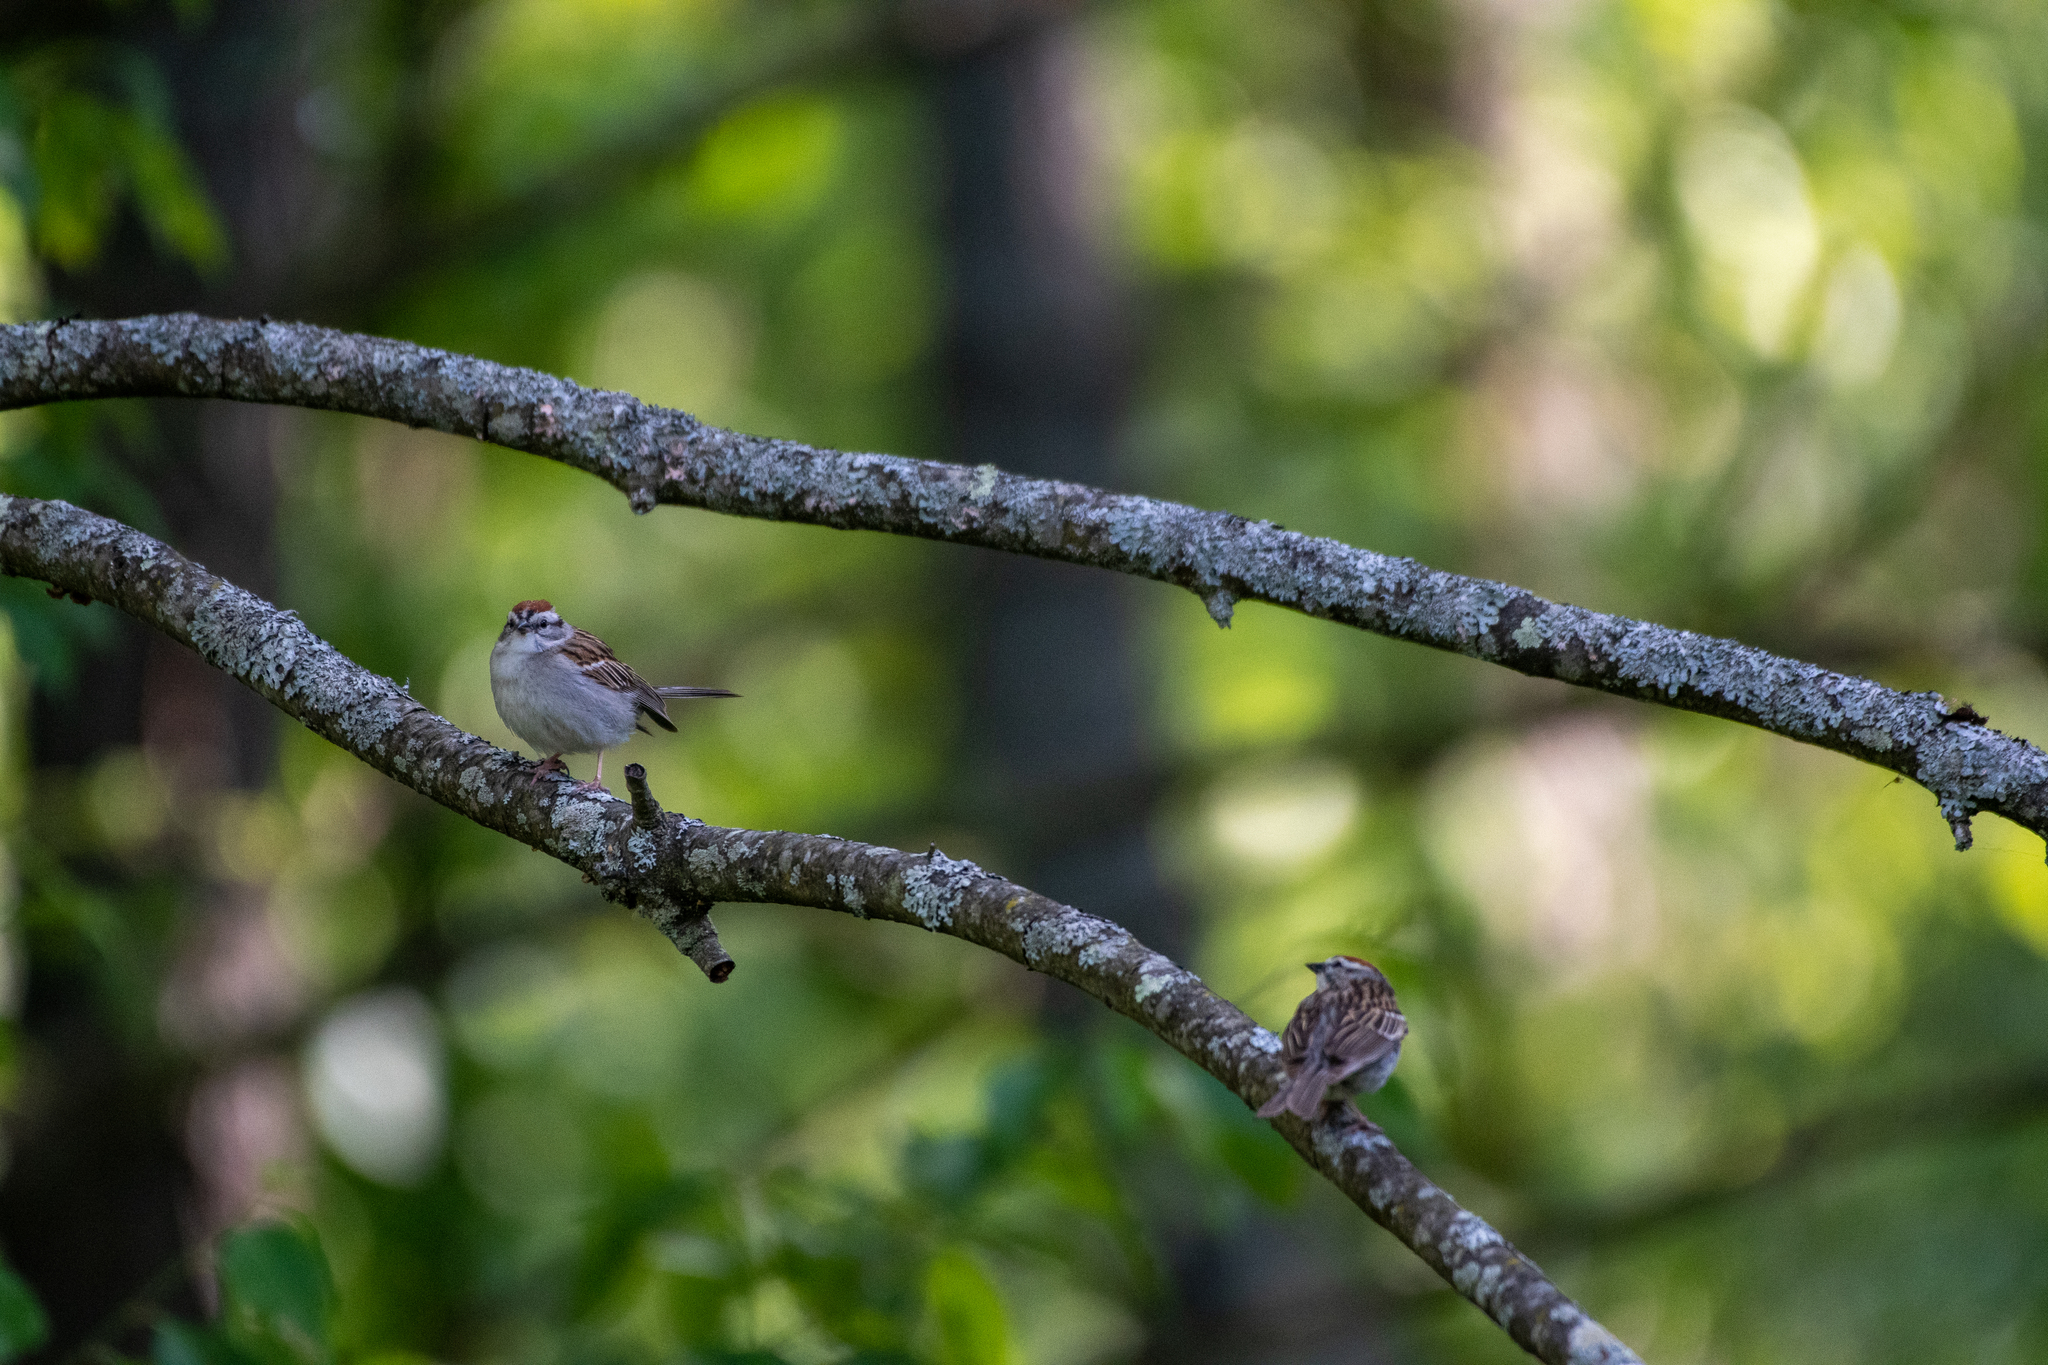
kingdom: Animalia
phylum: Chordata
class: Aves
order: Passeriformes
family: Passerellidae
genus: Spizella
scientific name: Spizella passerina
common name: Chipping sparrow
